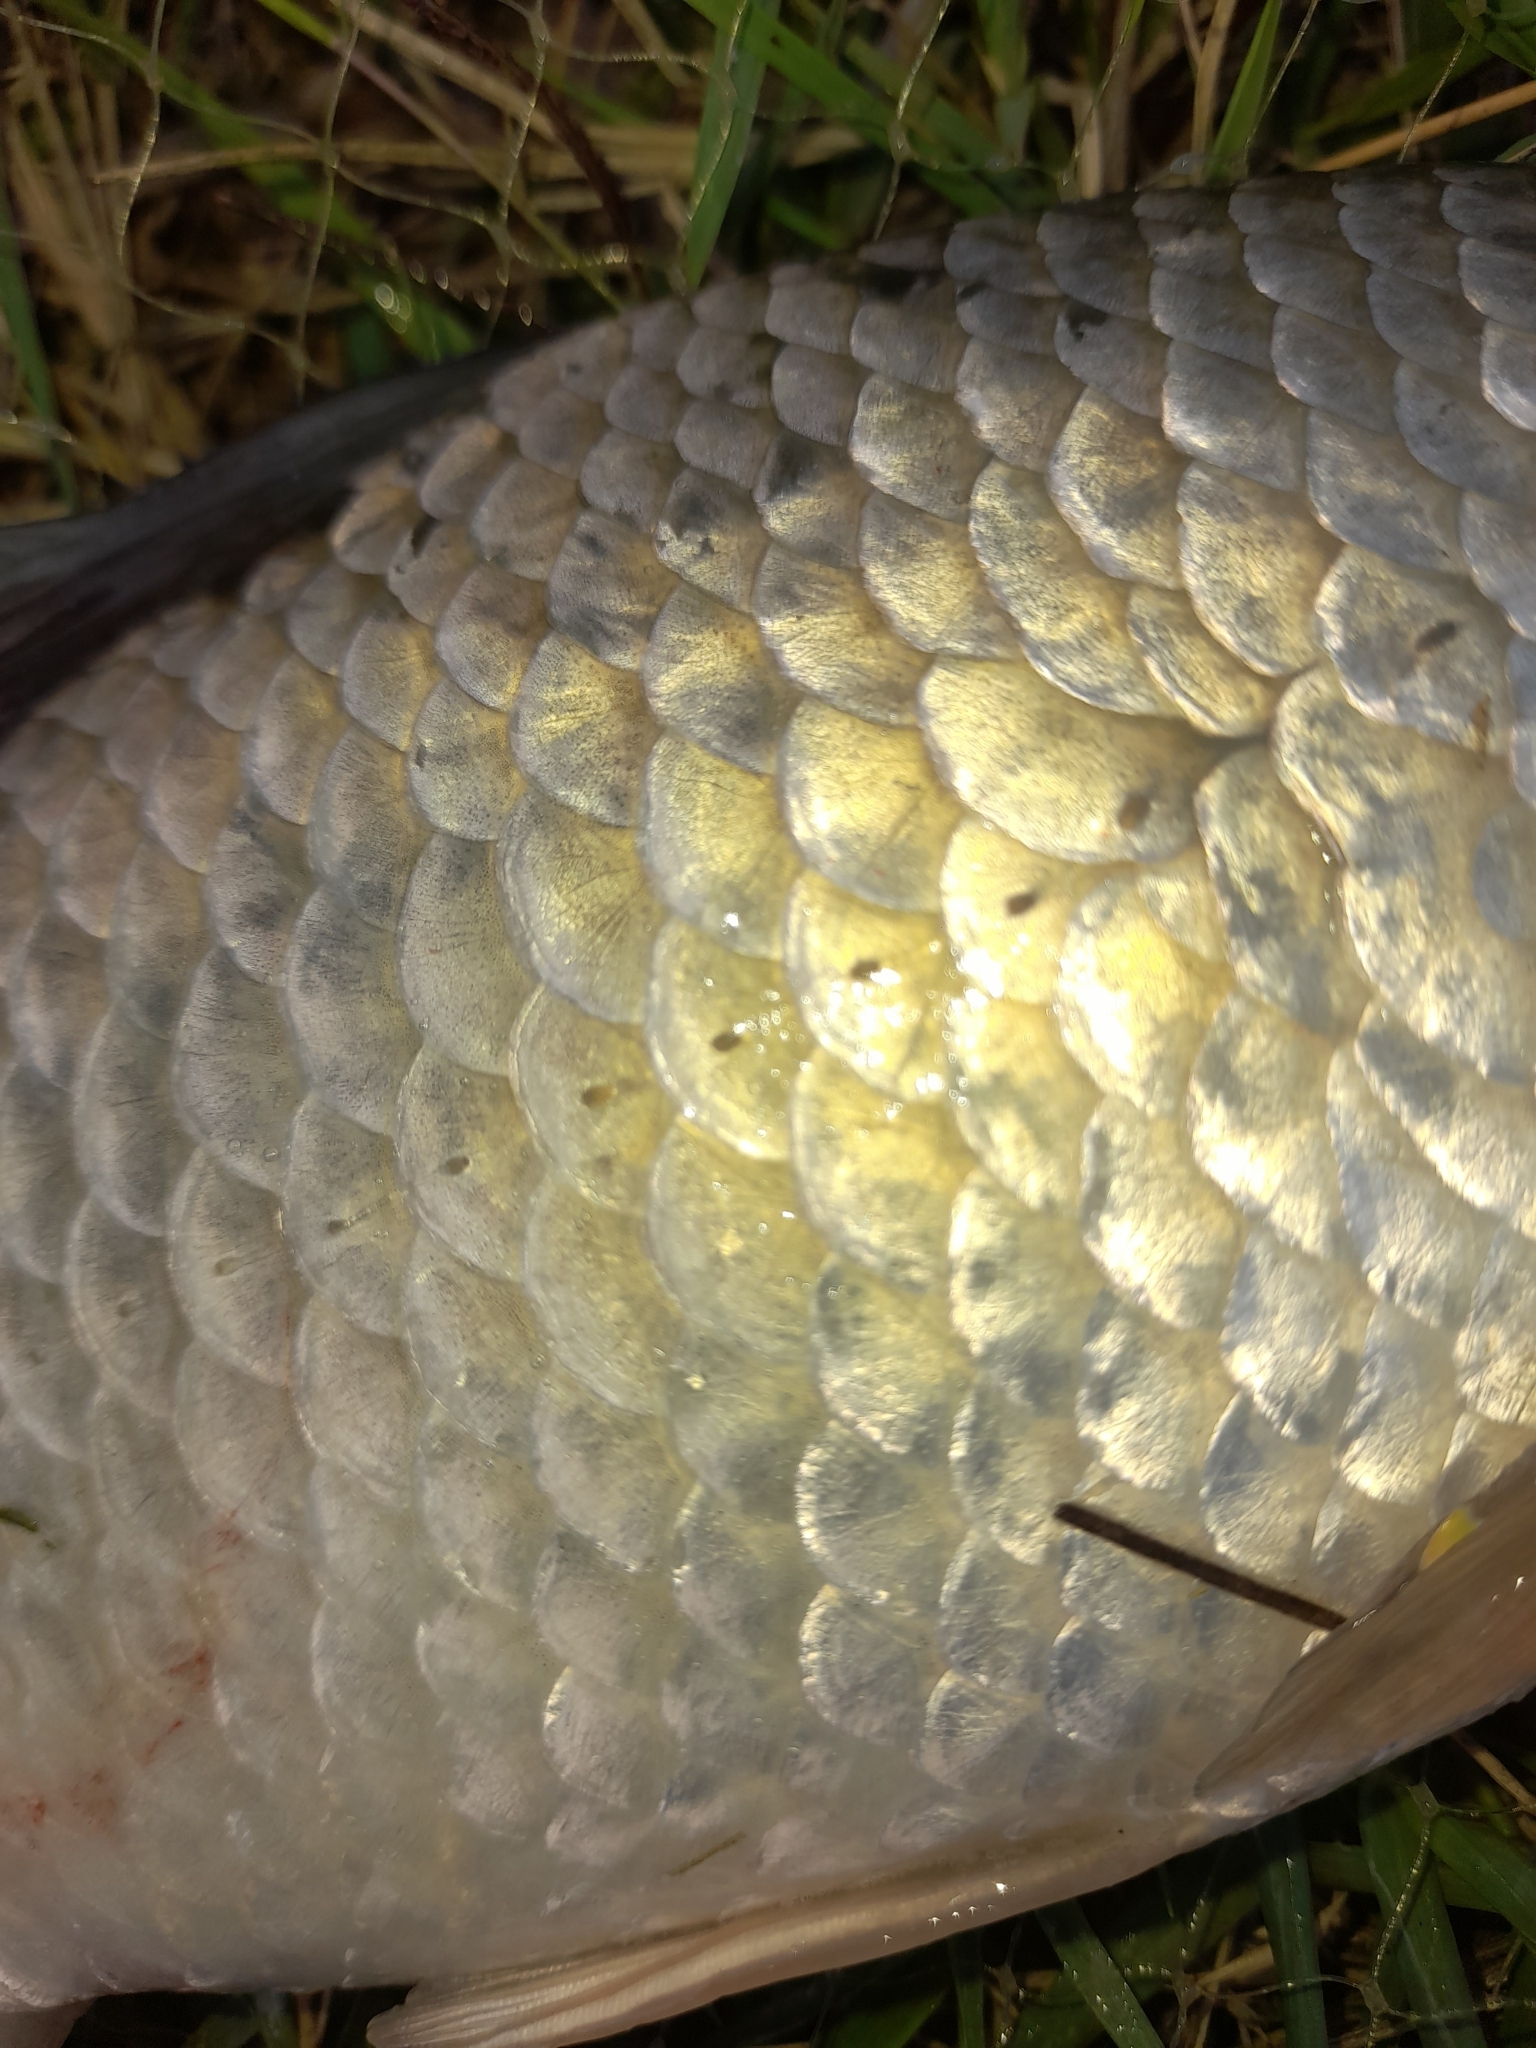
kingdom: Animalia
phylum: Chordata
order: Cypriniformes
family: Cyprinidae
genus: Carassius
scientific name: Carassius gibelio
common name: Prussian carp
